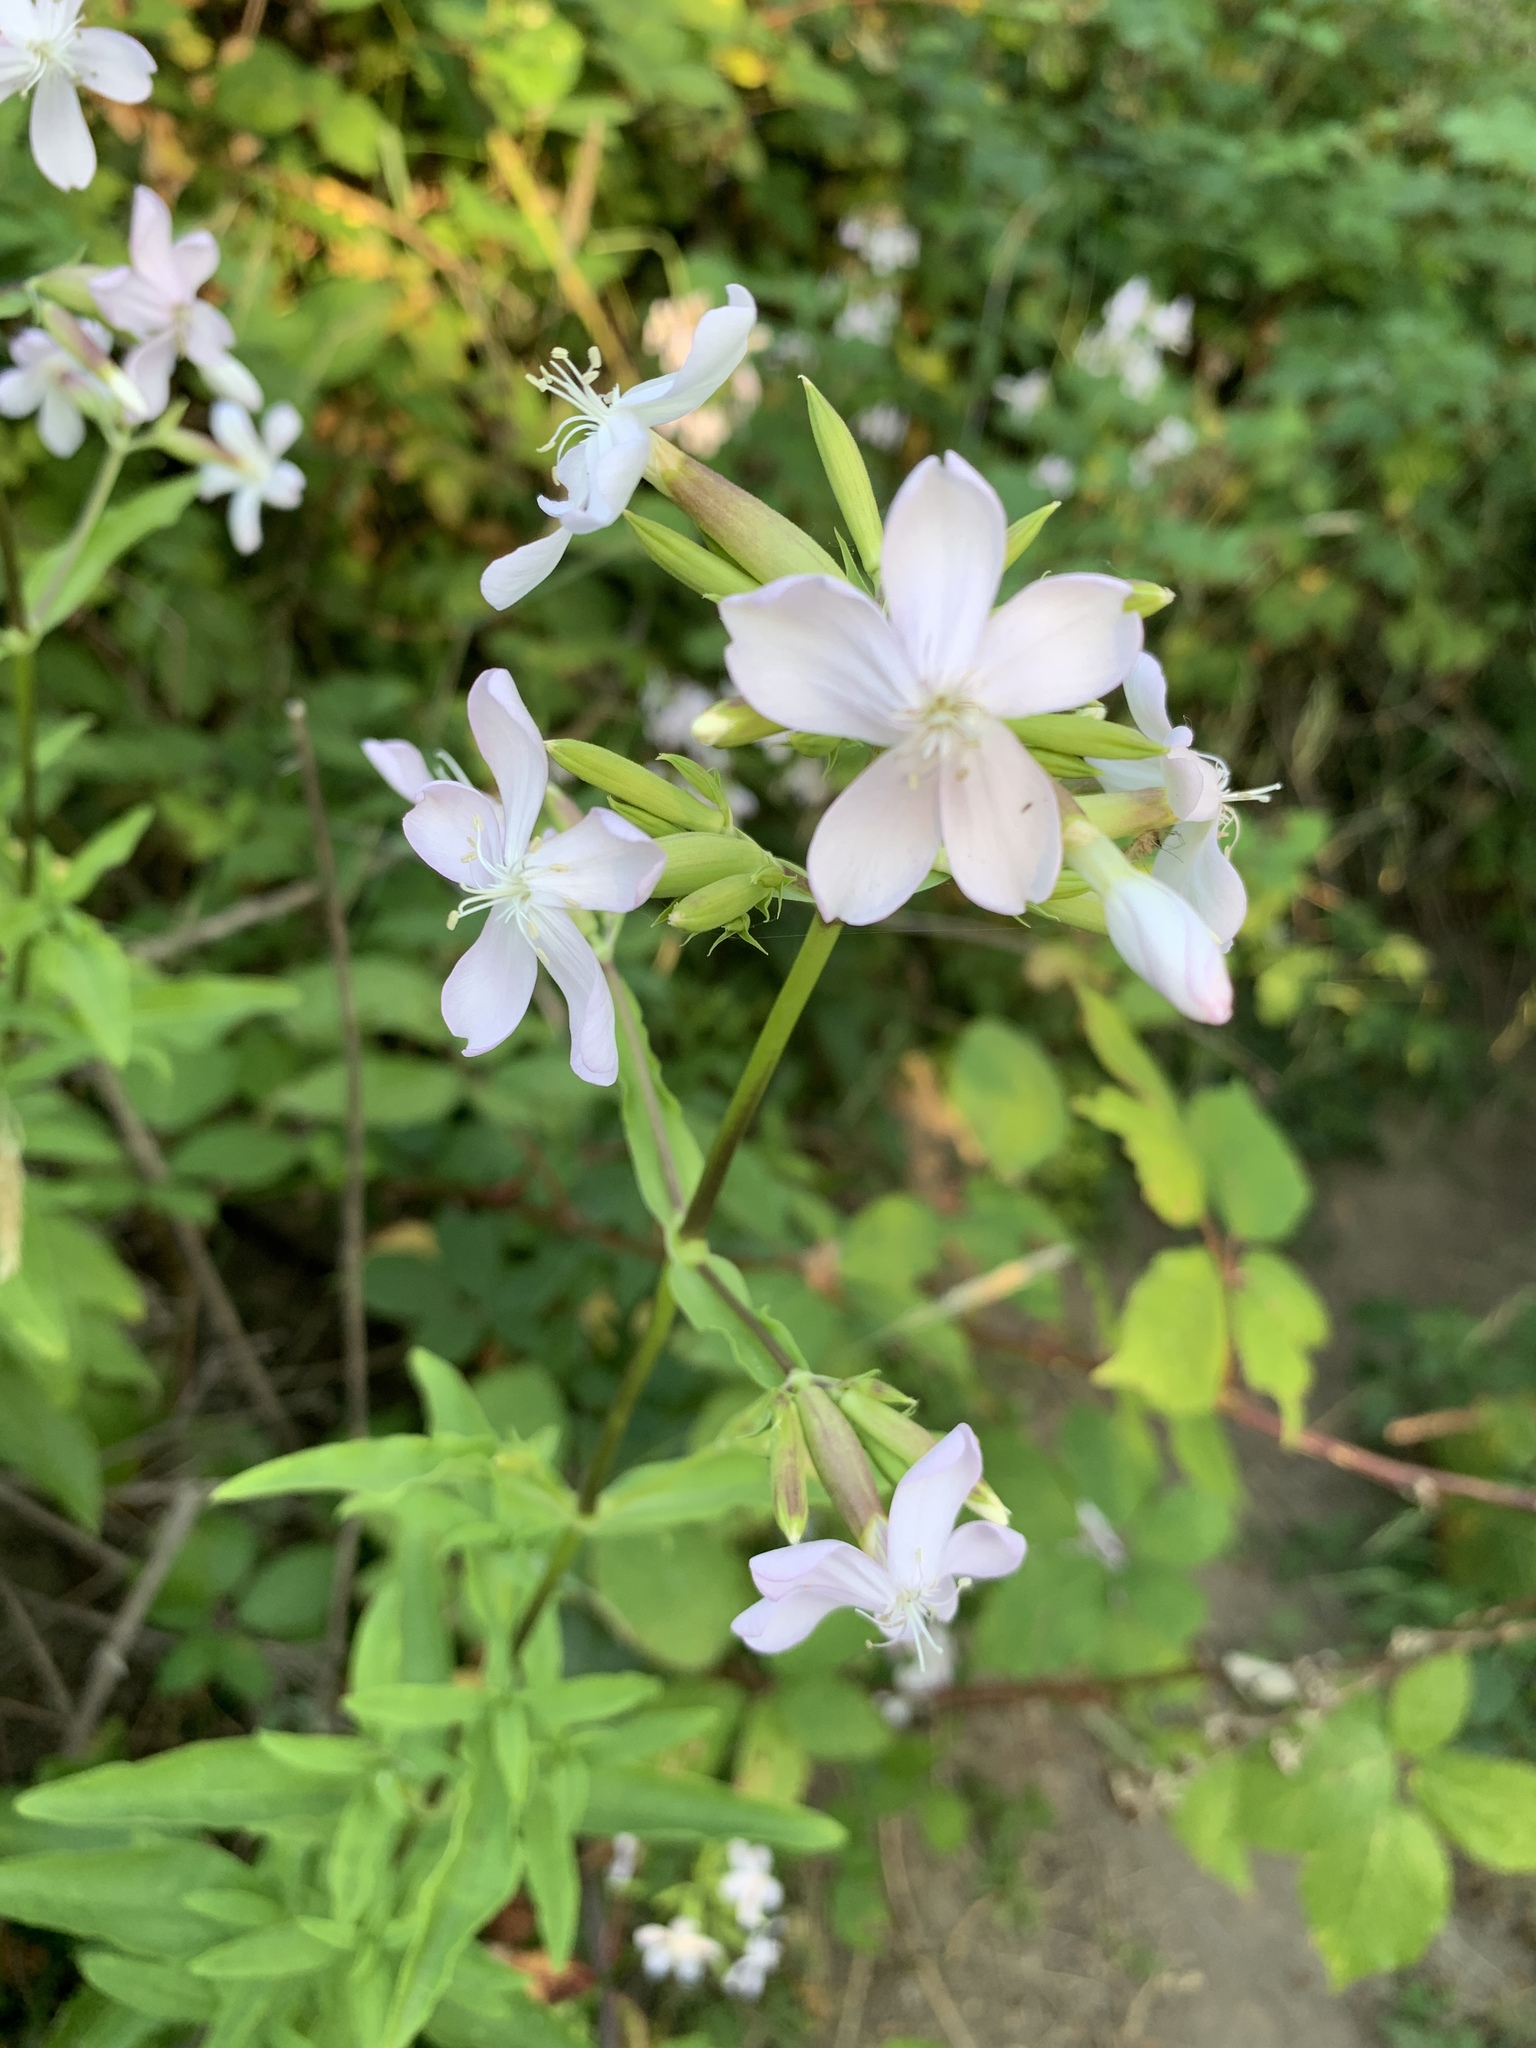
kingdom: Plantae
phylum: Tracheophyta
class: Magnoliopsida
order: Caryophyllales
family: Caryophyllaceae
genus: Saponaria
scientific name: Saponaria officinalis
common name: Soapwort
